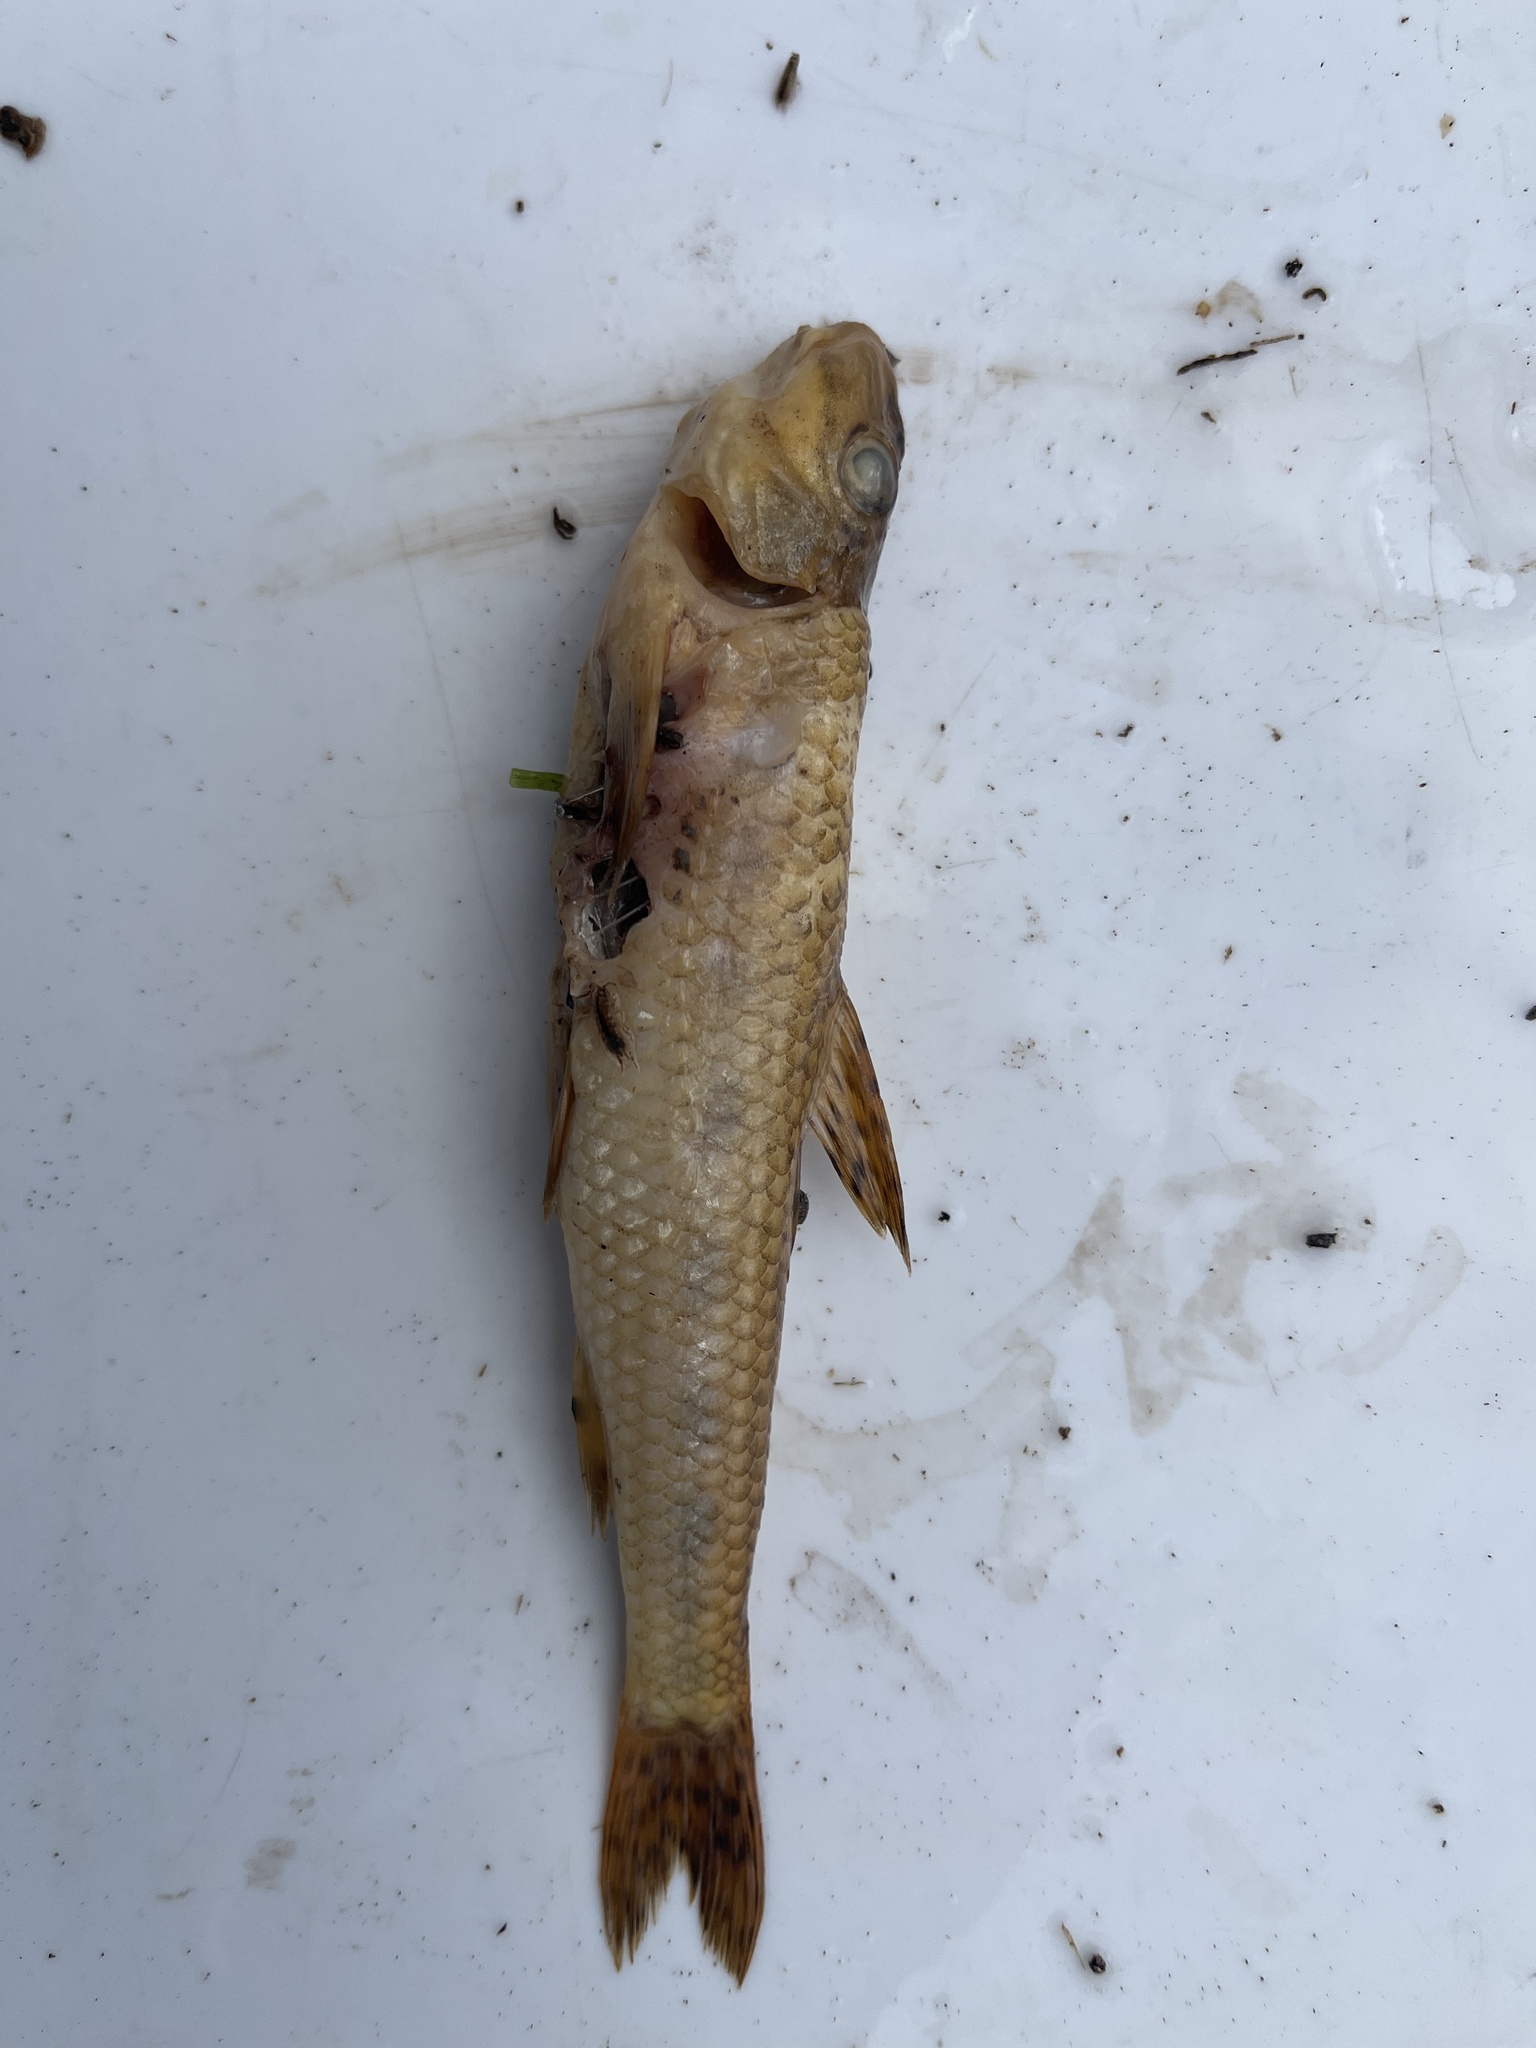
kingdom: Animalia
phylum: Chordata
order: Cypriniformes
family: Cyprinidae
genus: Gobio
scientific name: Gobio gobio
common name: Gudgeon
